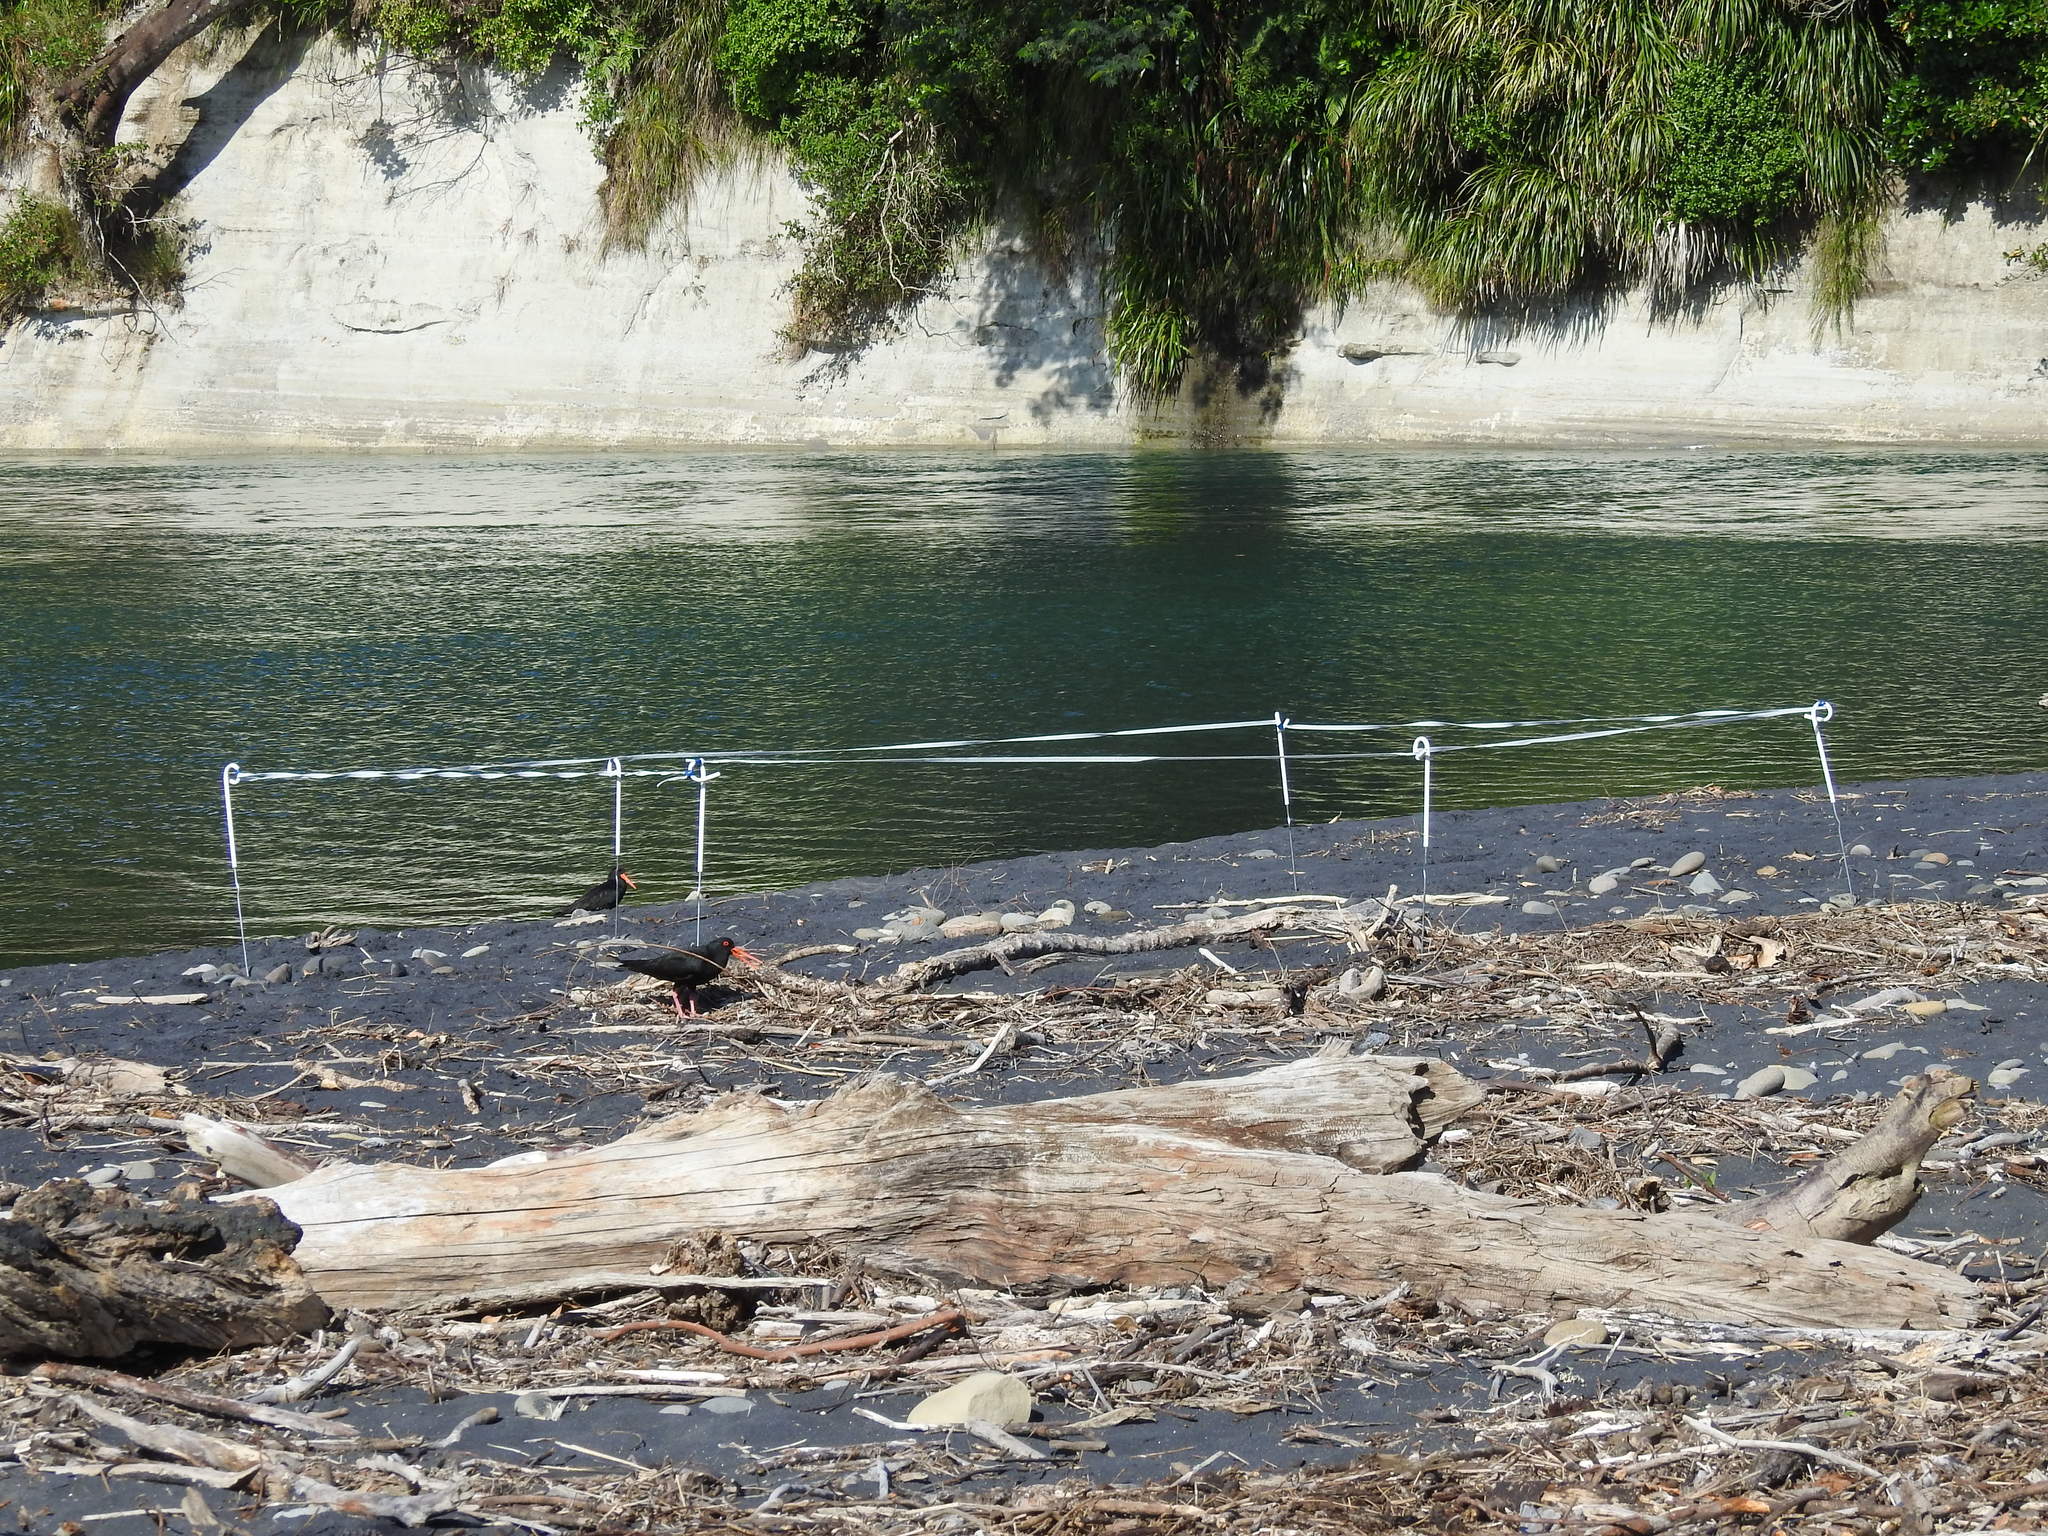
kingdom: Animalia
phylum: Chordata
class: Aves
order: Charadriiformes
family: Haematopodidae
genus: Haematopus
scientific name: Haematopus unicolor
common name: Variable oystercatcher
